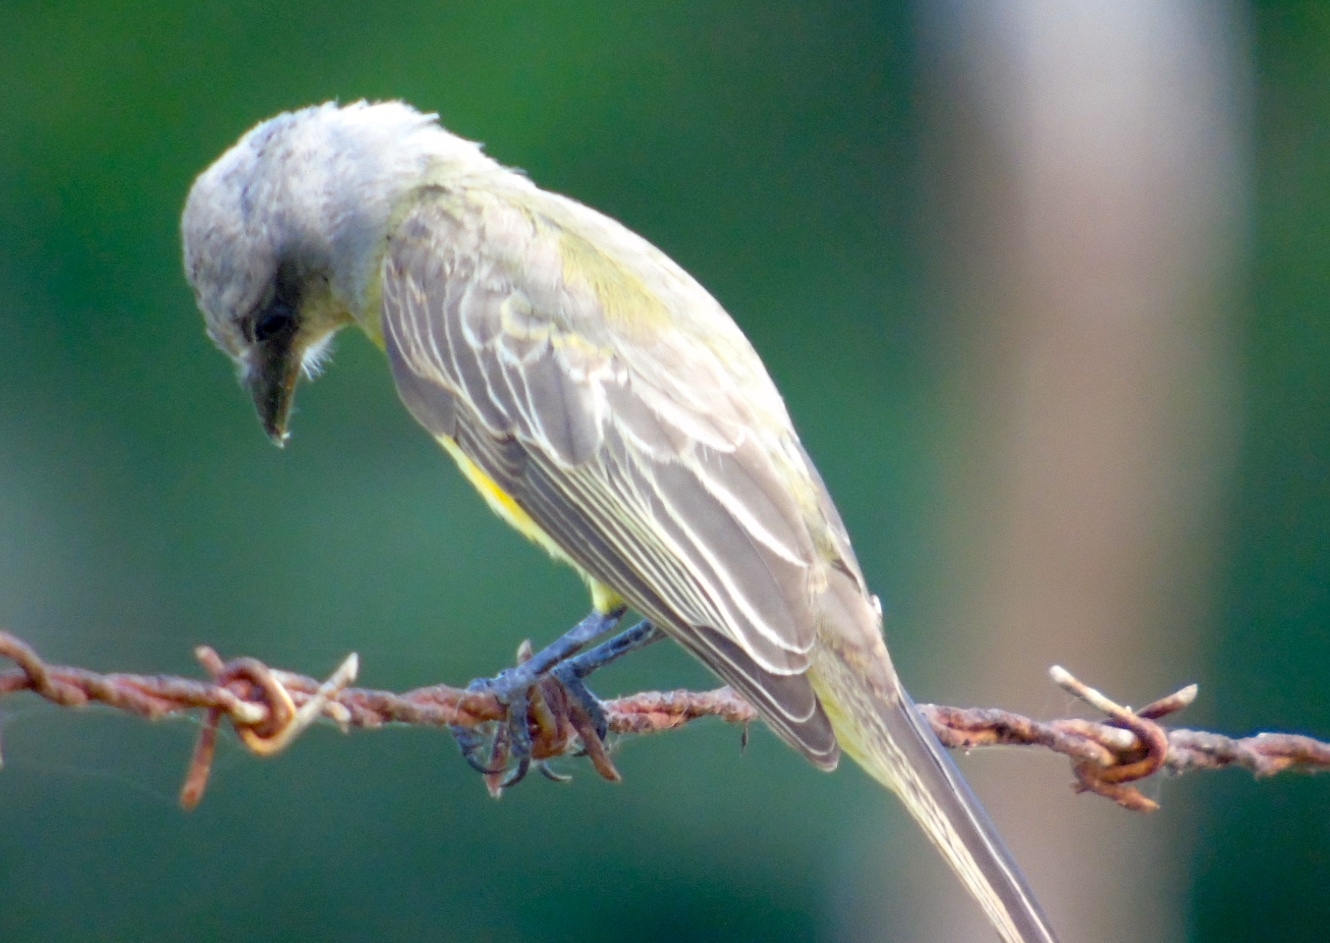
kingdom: Animalia
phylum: Chordata
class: Aves
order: Passeriformes
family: Tyrannidae
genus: Tyrannus
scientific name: Tyrannus melancholicus
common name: Tropical kingbird
